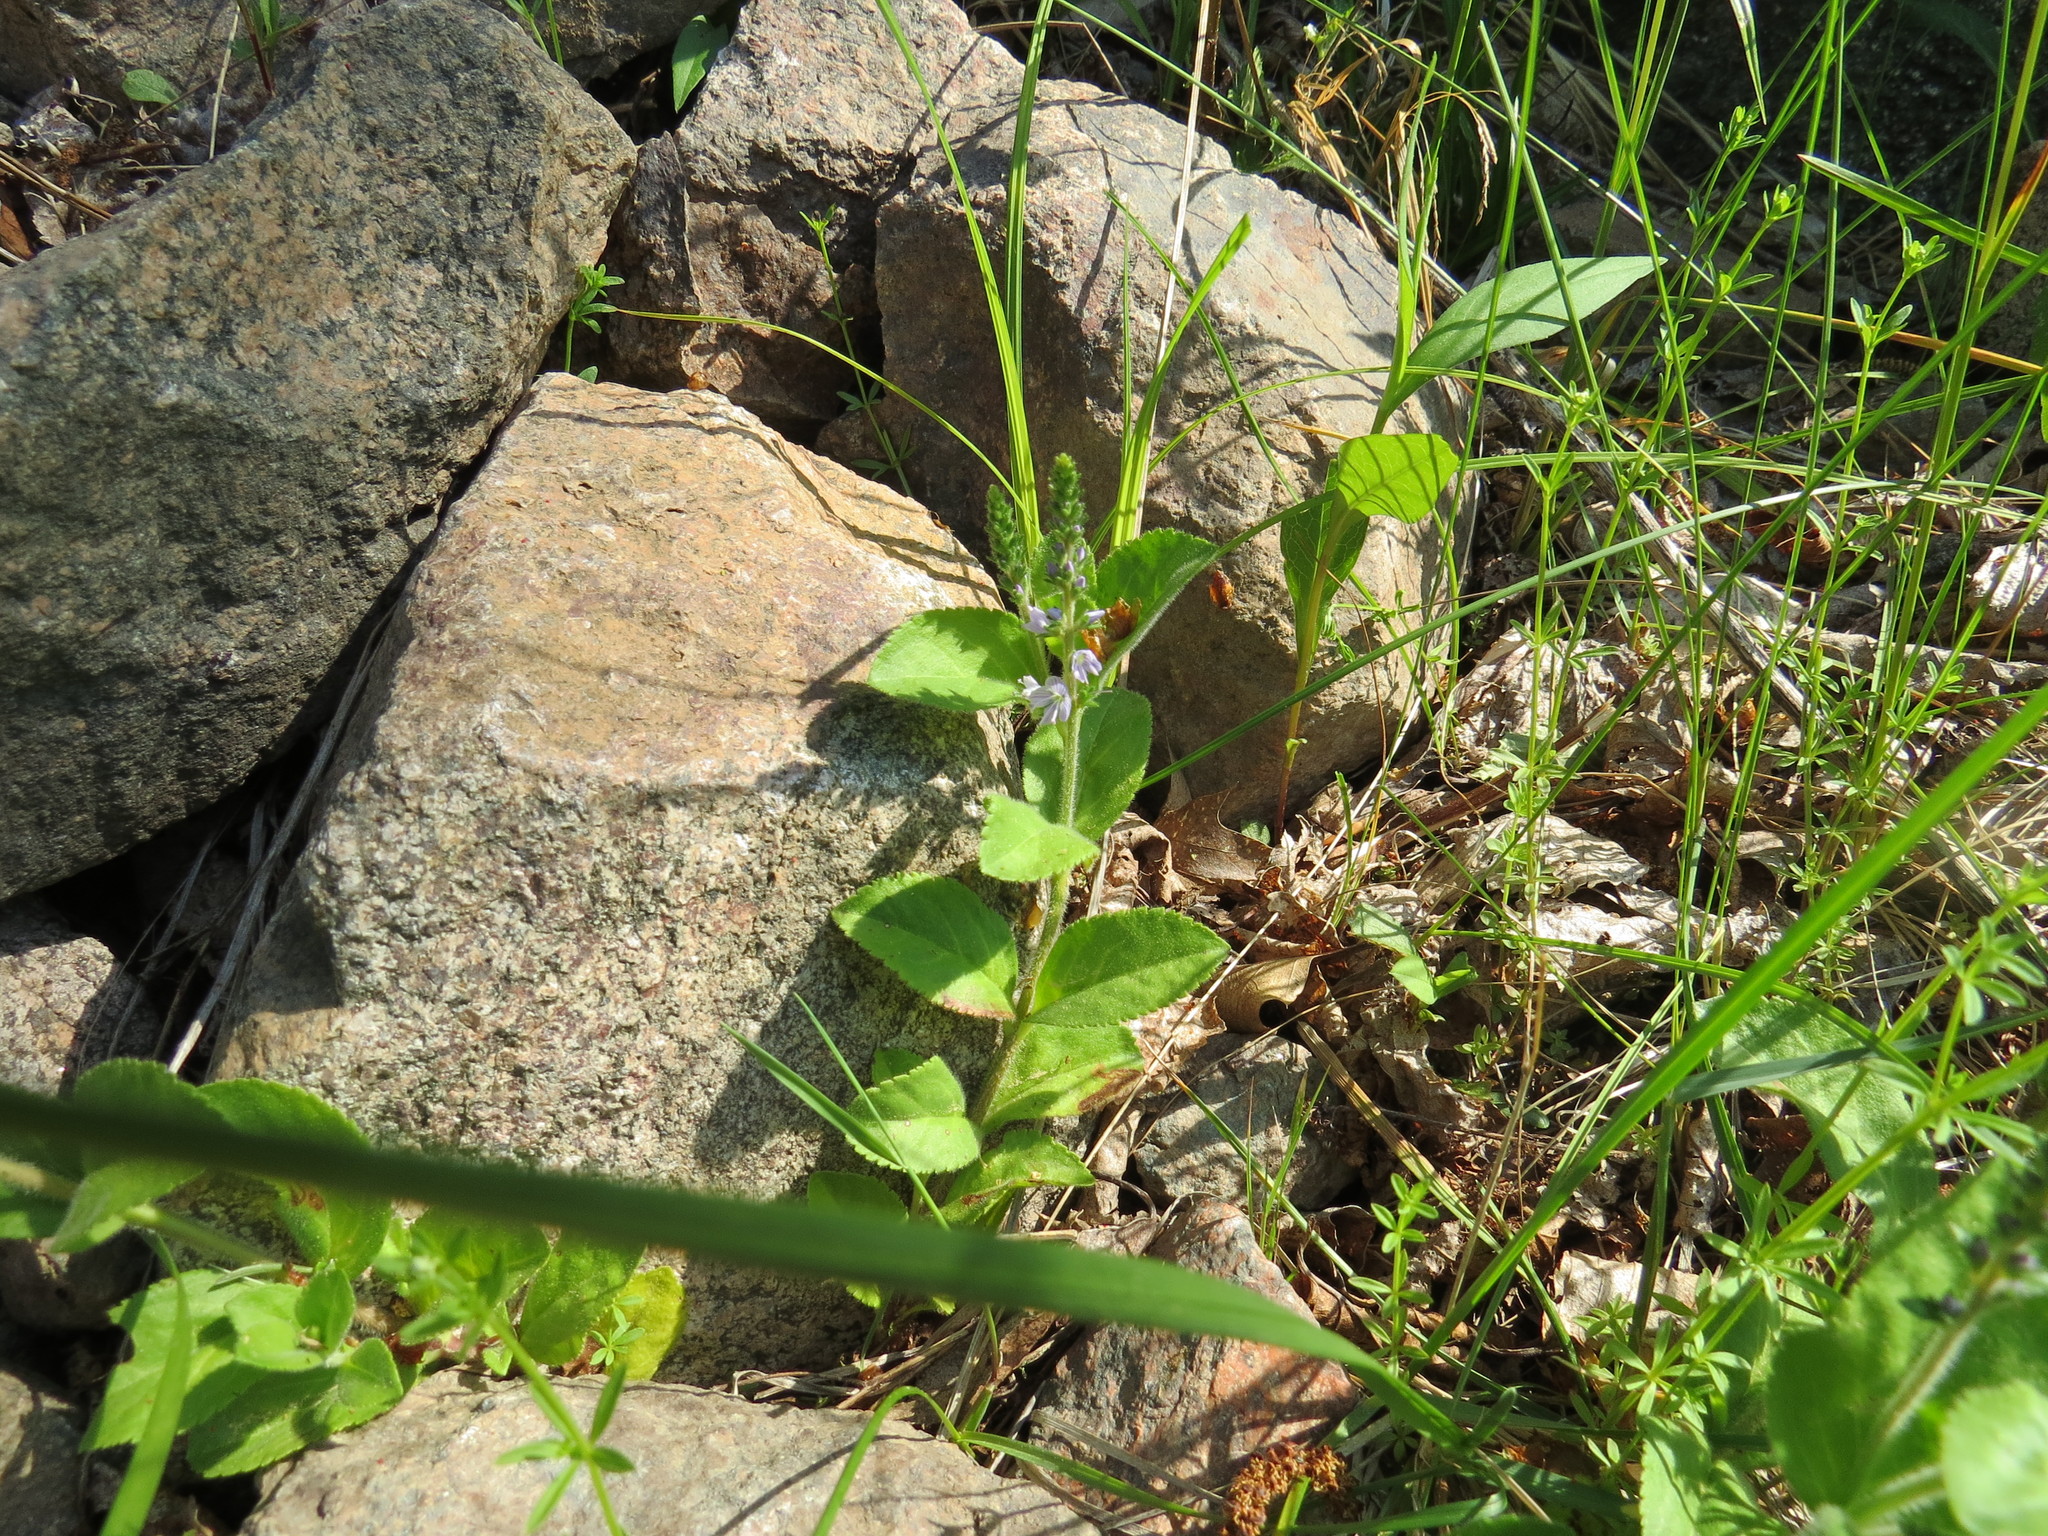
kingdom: Plantae
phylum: Tracheophyta
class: Magnoliopsida
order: Lamiales
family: Plantaginaceae
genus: Veronica
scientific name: Veronica officinalis
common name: Common speedwell
